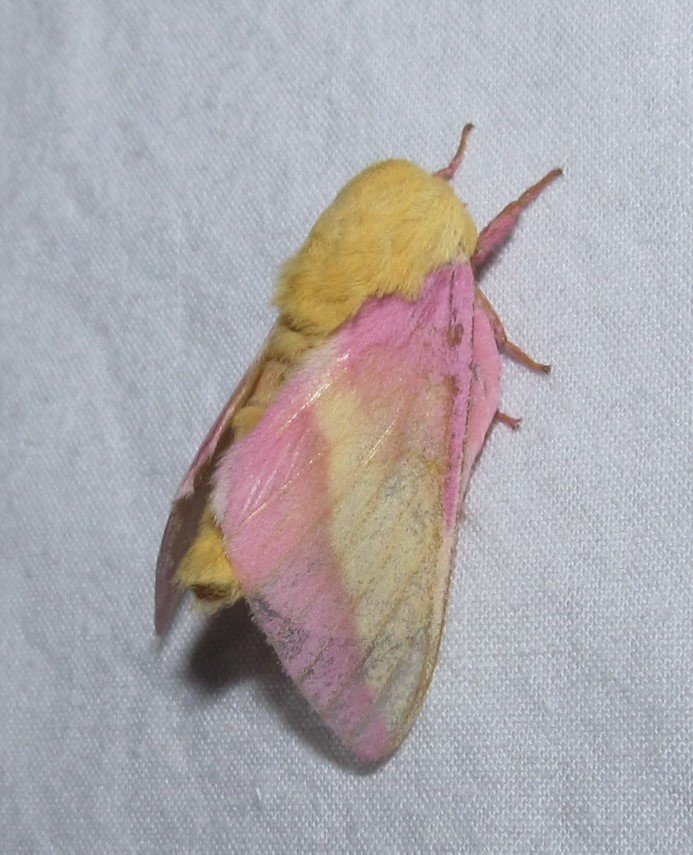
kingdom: Animalia
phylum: Arthropoda
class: Insecta
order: Lepidoptera
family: Saturniidae
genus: Dryocampa
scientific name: Dryocampa rubicunda
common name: Rosy maple moth
